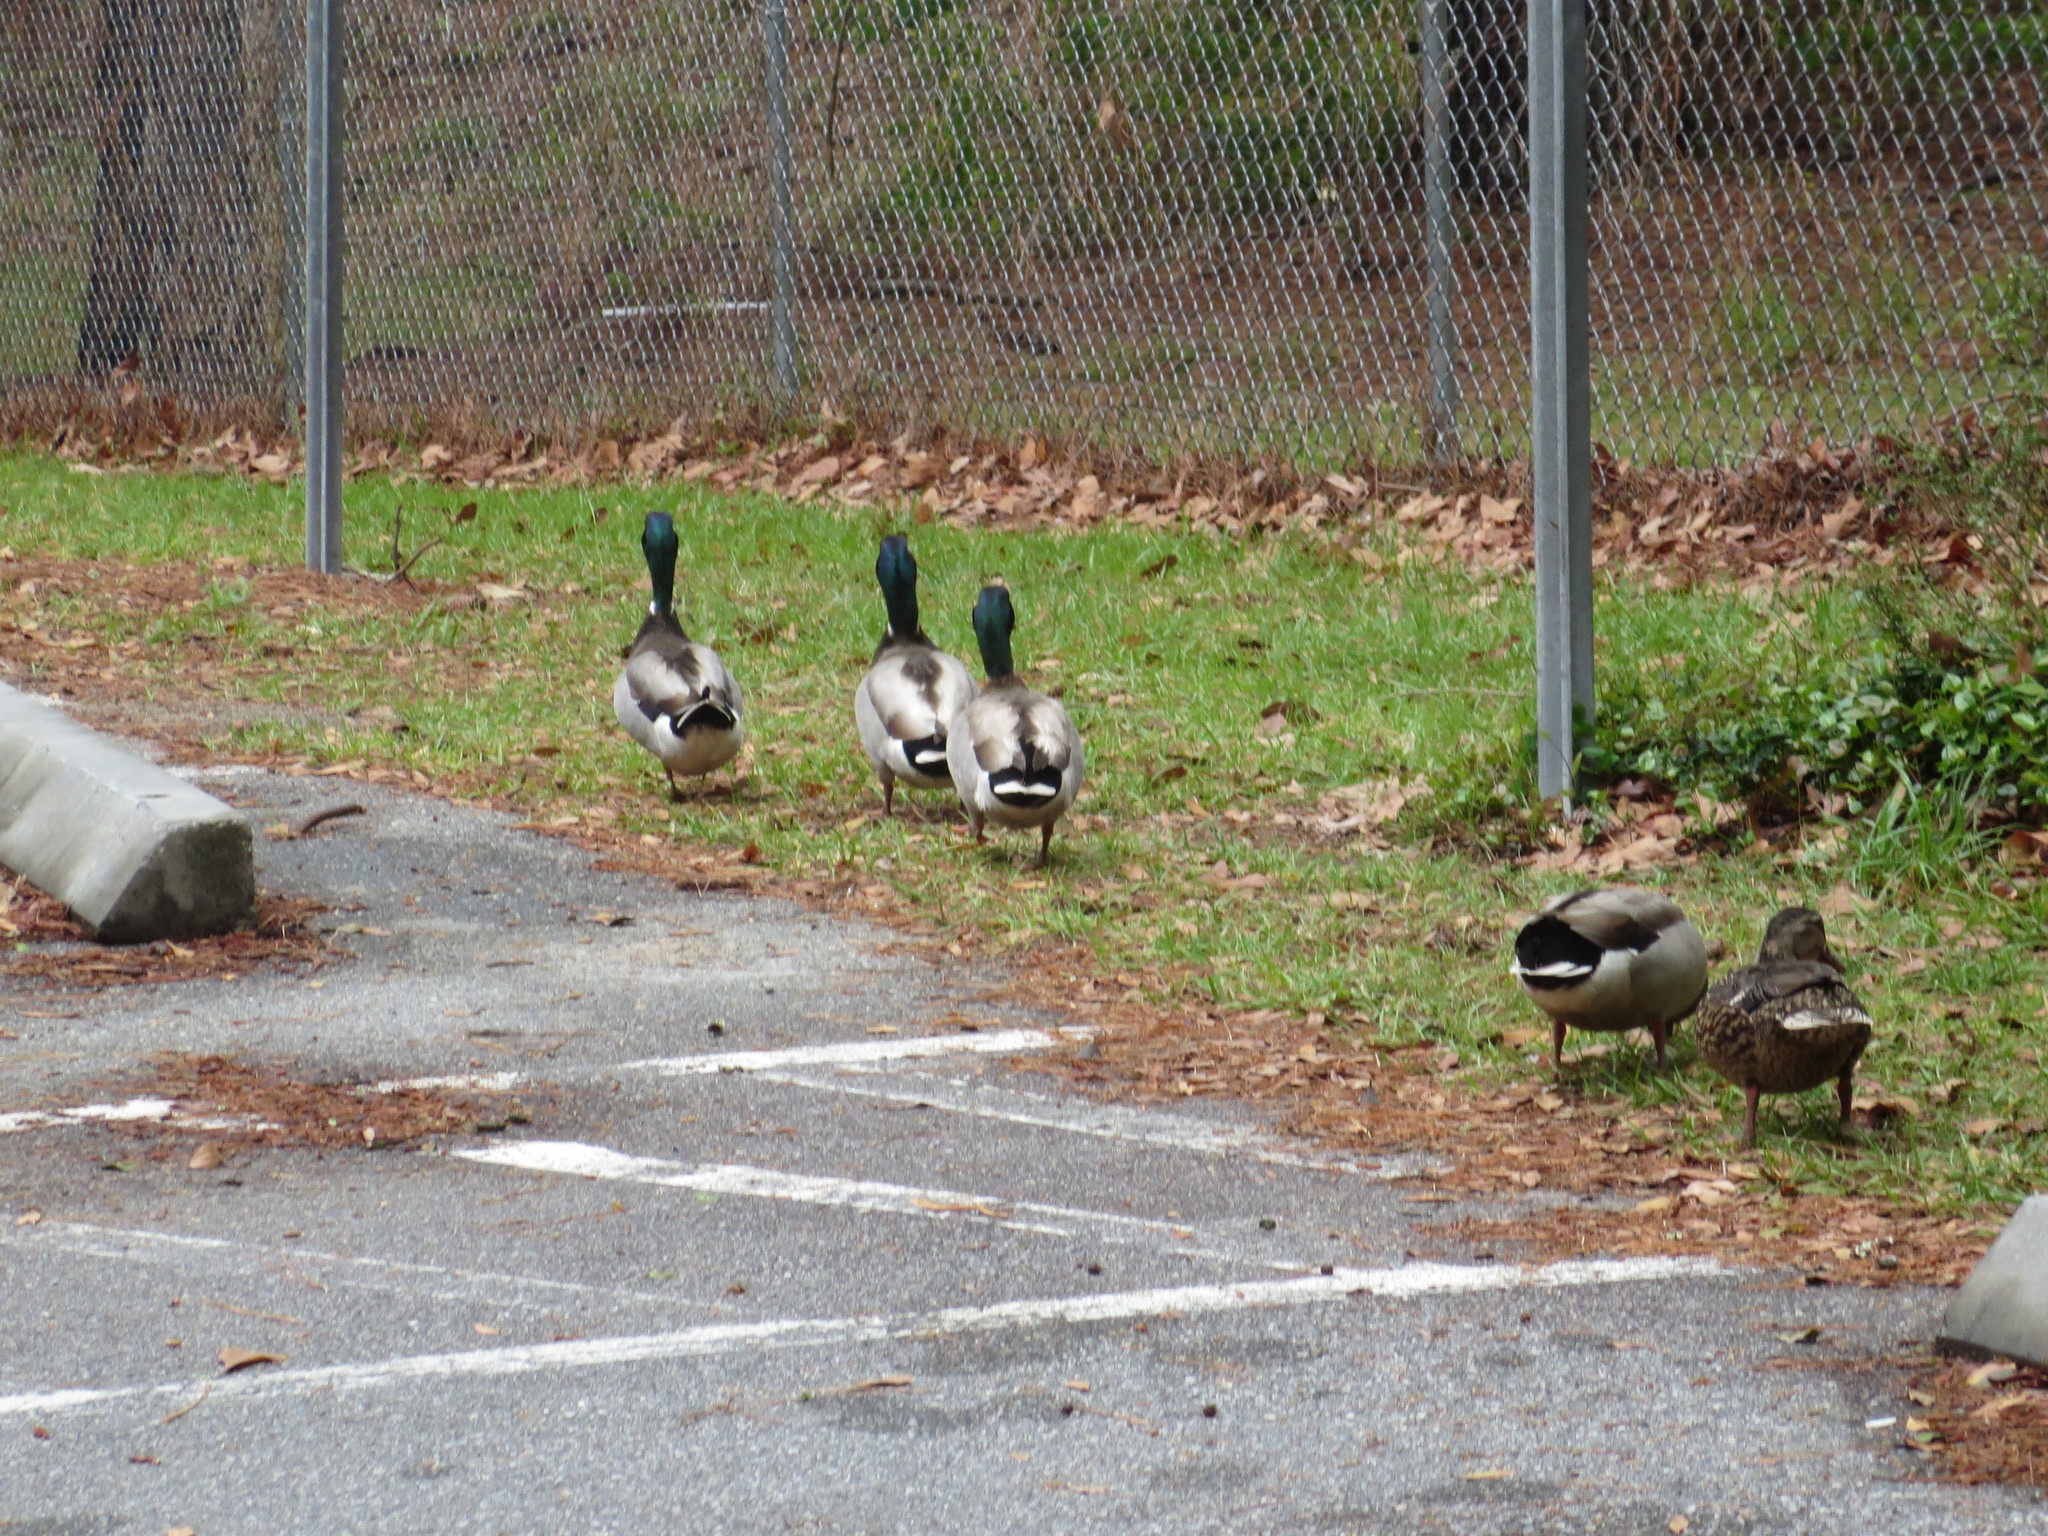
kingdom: Animalia
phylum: Chordata
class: Aves
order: Anseriformes
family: Anatidae
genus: Anas
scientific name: Anas platyrhynchos
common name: Mallard
